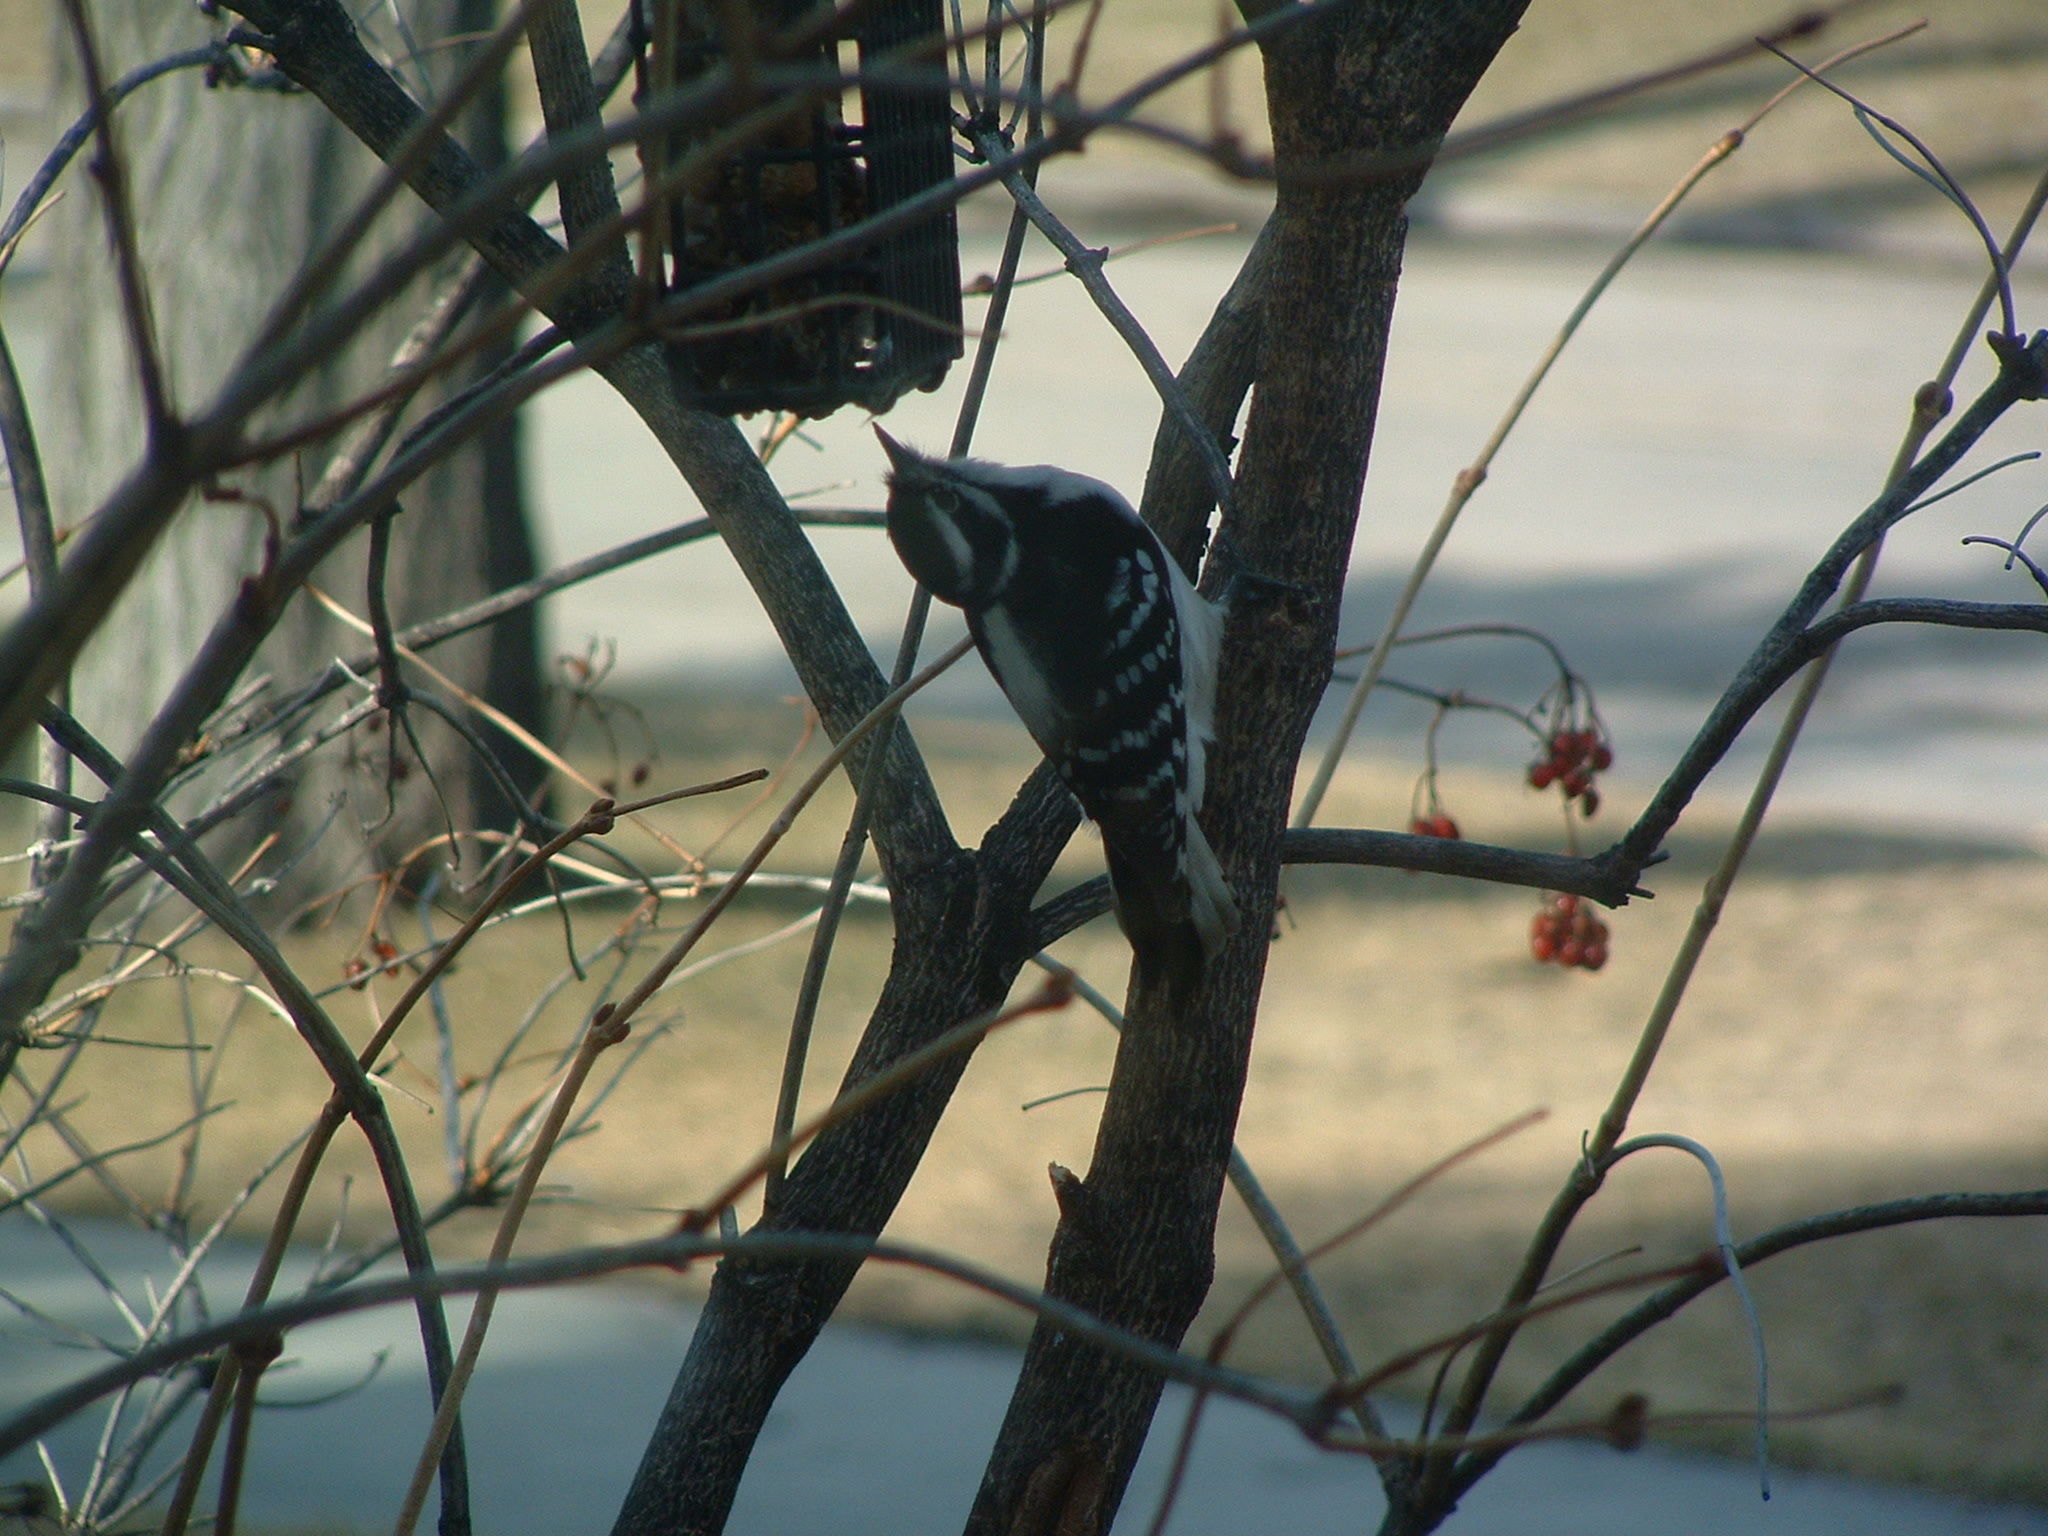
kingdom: Animalia
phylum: Chordata
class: Aves
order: Piciformes
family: Picidae
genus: Dryobates
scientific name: Dryobates pubescens
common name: Downy woodpecker
